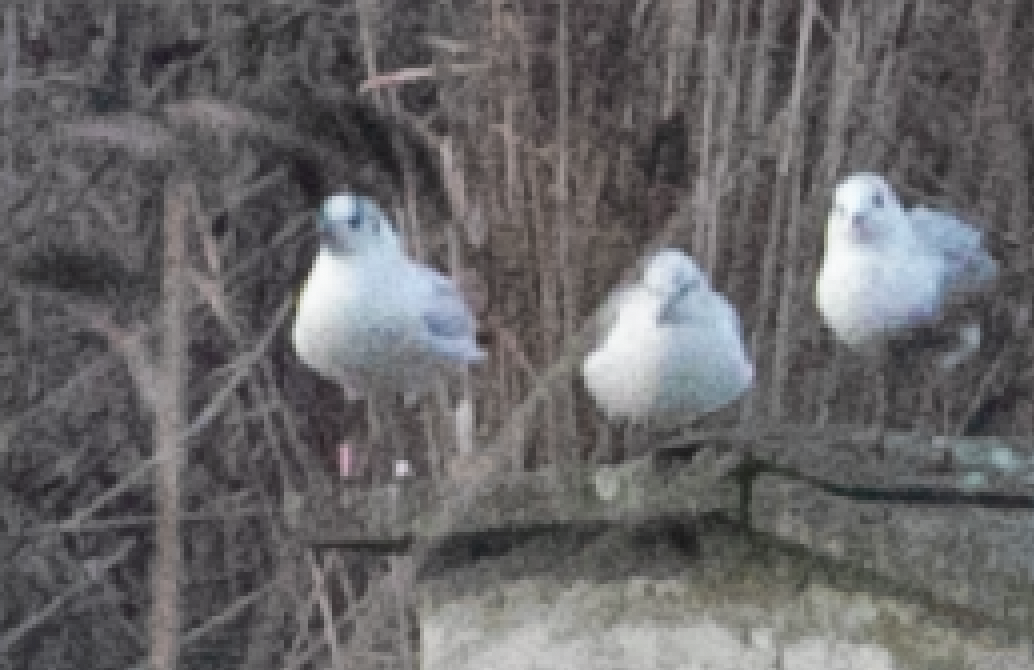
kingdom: Animalia
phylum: Chordata
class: Aves
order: Charadriiformes
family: Laridae
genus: Chroicocephalus
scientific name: Chroicocephalus ridibundus
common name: Black-headed gull
